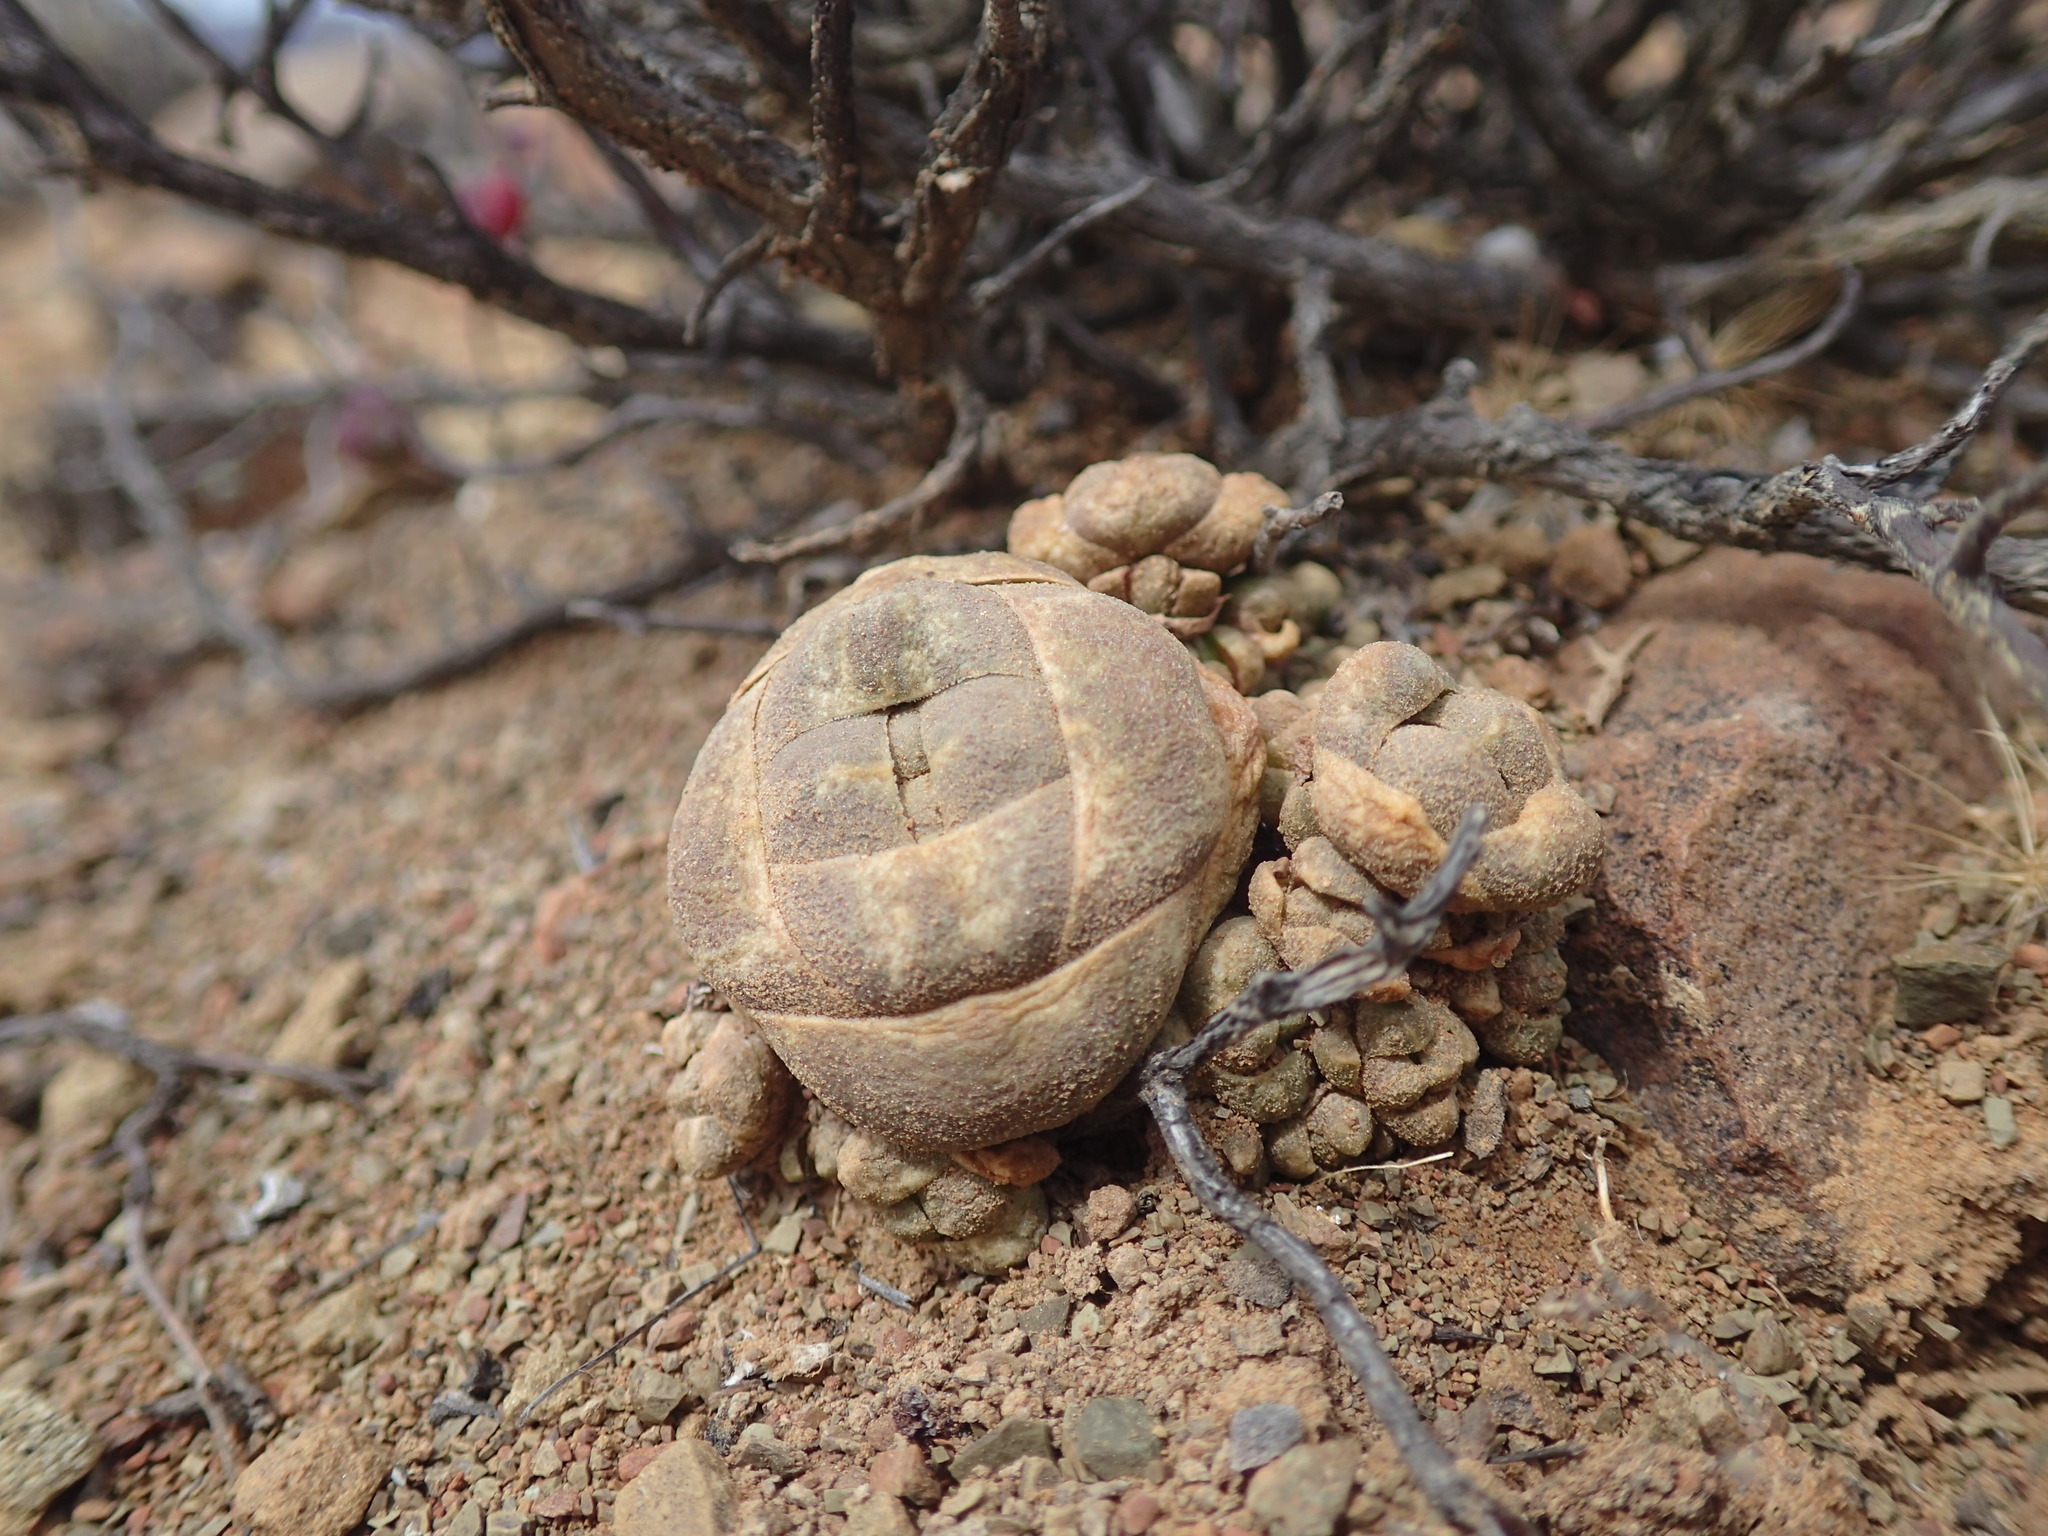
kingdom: Plantae
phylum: Tracheophyta
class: Magnoliopsida
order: Saxifragales
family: Crassulaceae
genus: Crassula
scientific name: Crassula columnaris
